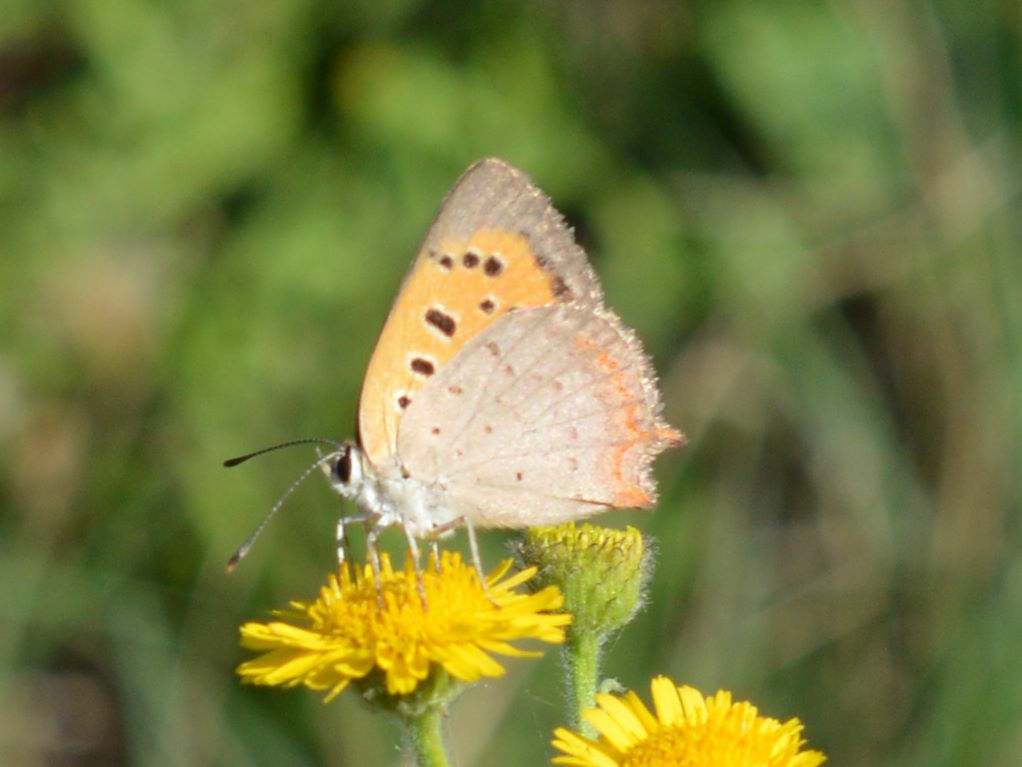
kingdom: Animalia
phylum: Arthropoda
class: Insecta
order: Lepidoptera
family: Lycaenidae
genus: Lycaena
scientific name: Lycaena phlaeas
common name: Small copper
